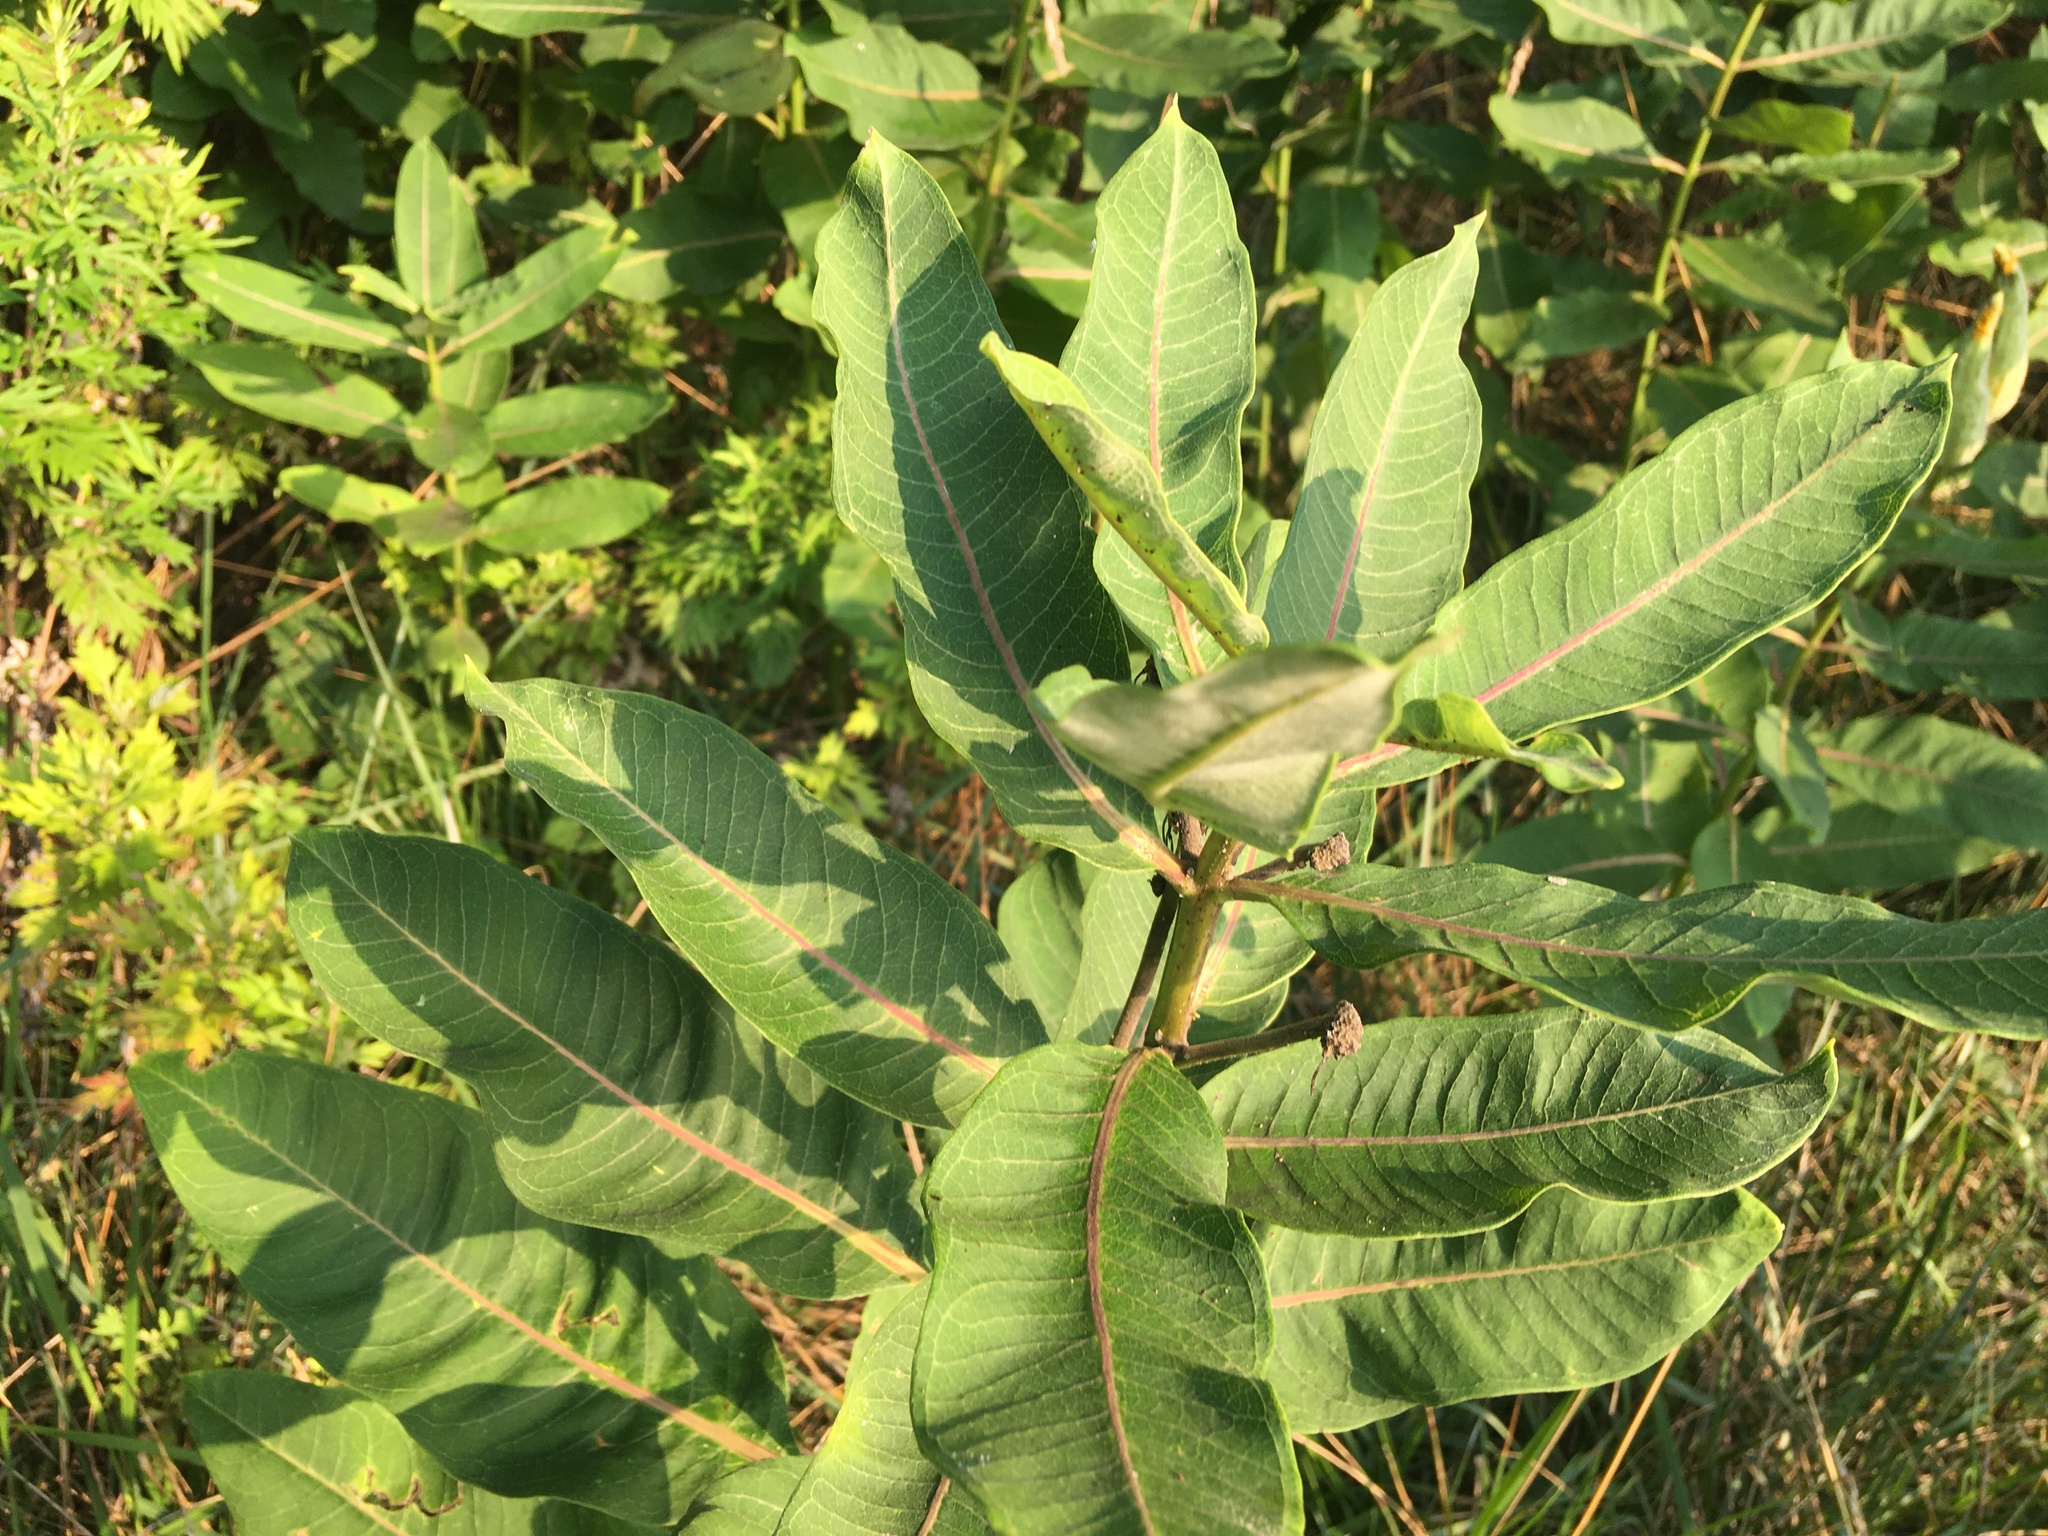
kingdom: Plantae
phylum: Tracheophyta
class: Magnoliopsida
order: Gentianales
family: Apocynaceae
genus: Asclepias
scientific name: Asclepias syriaca
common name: Common milkweed
